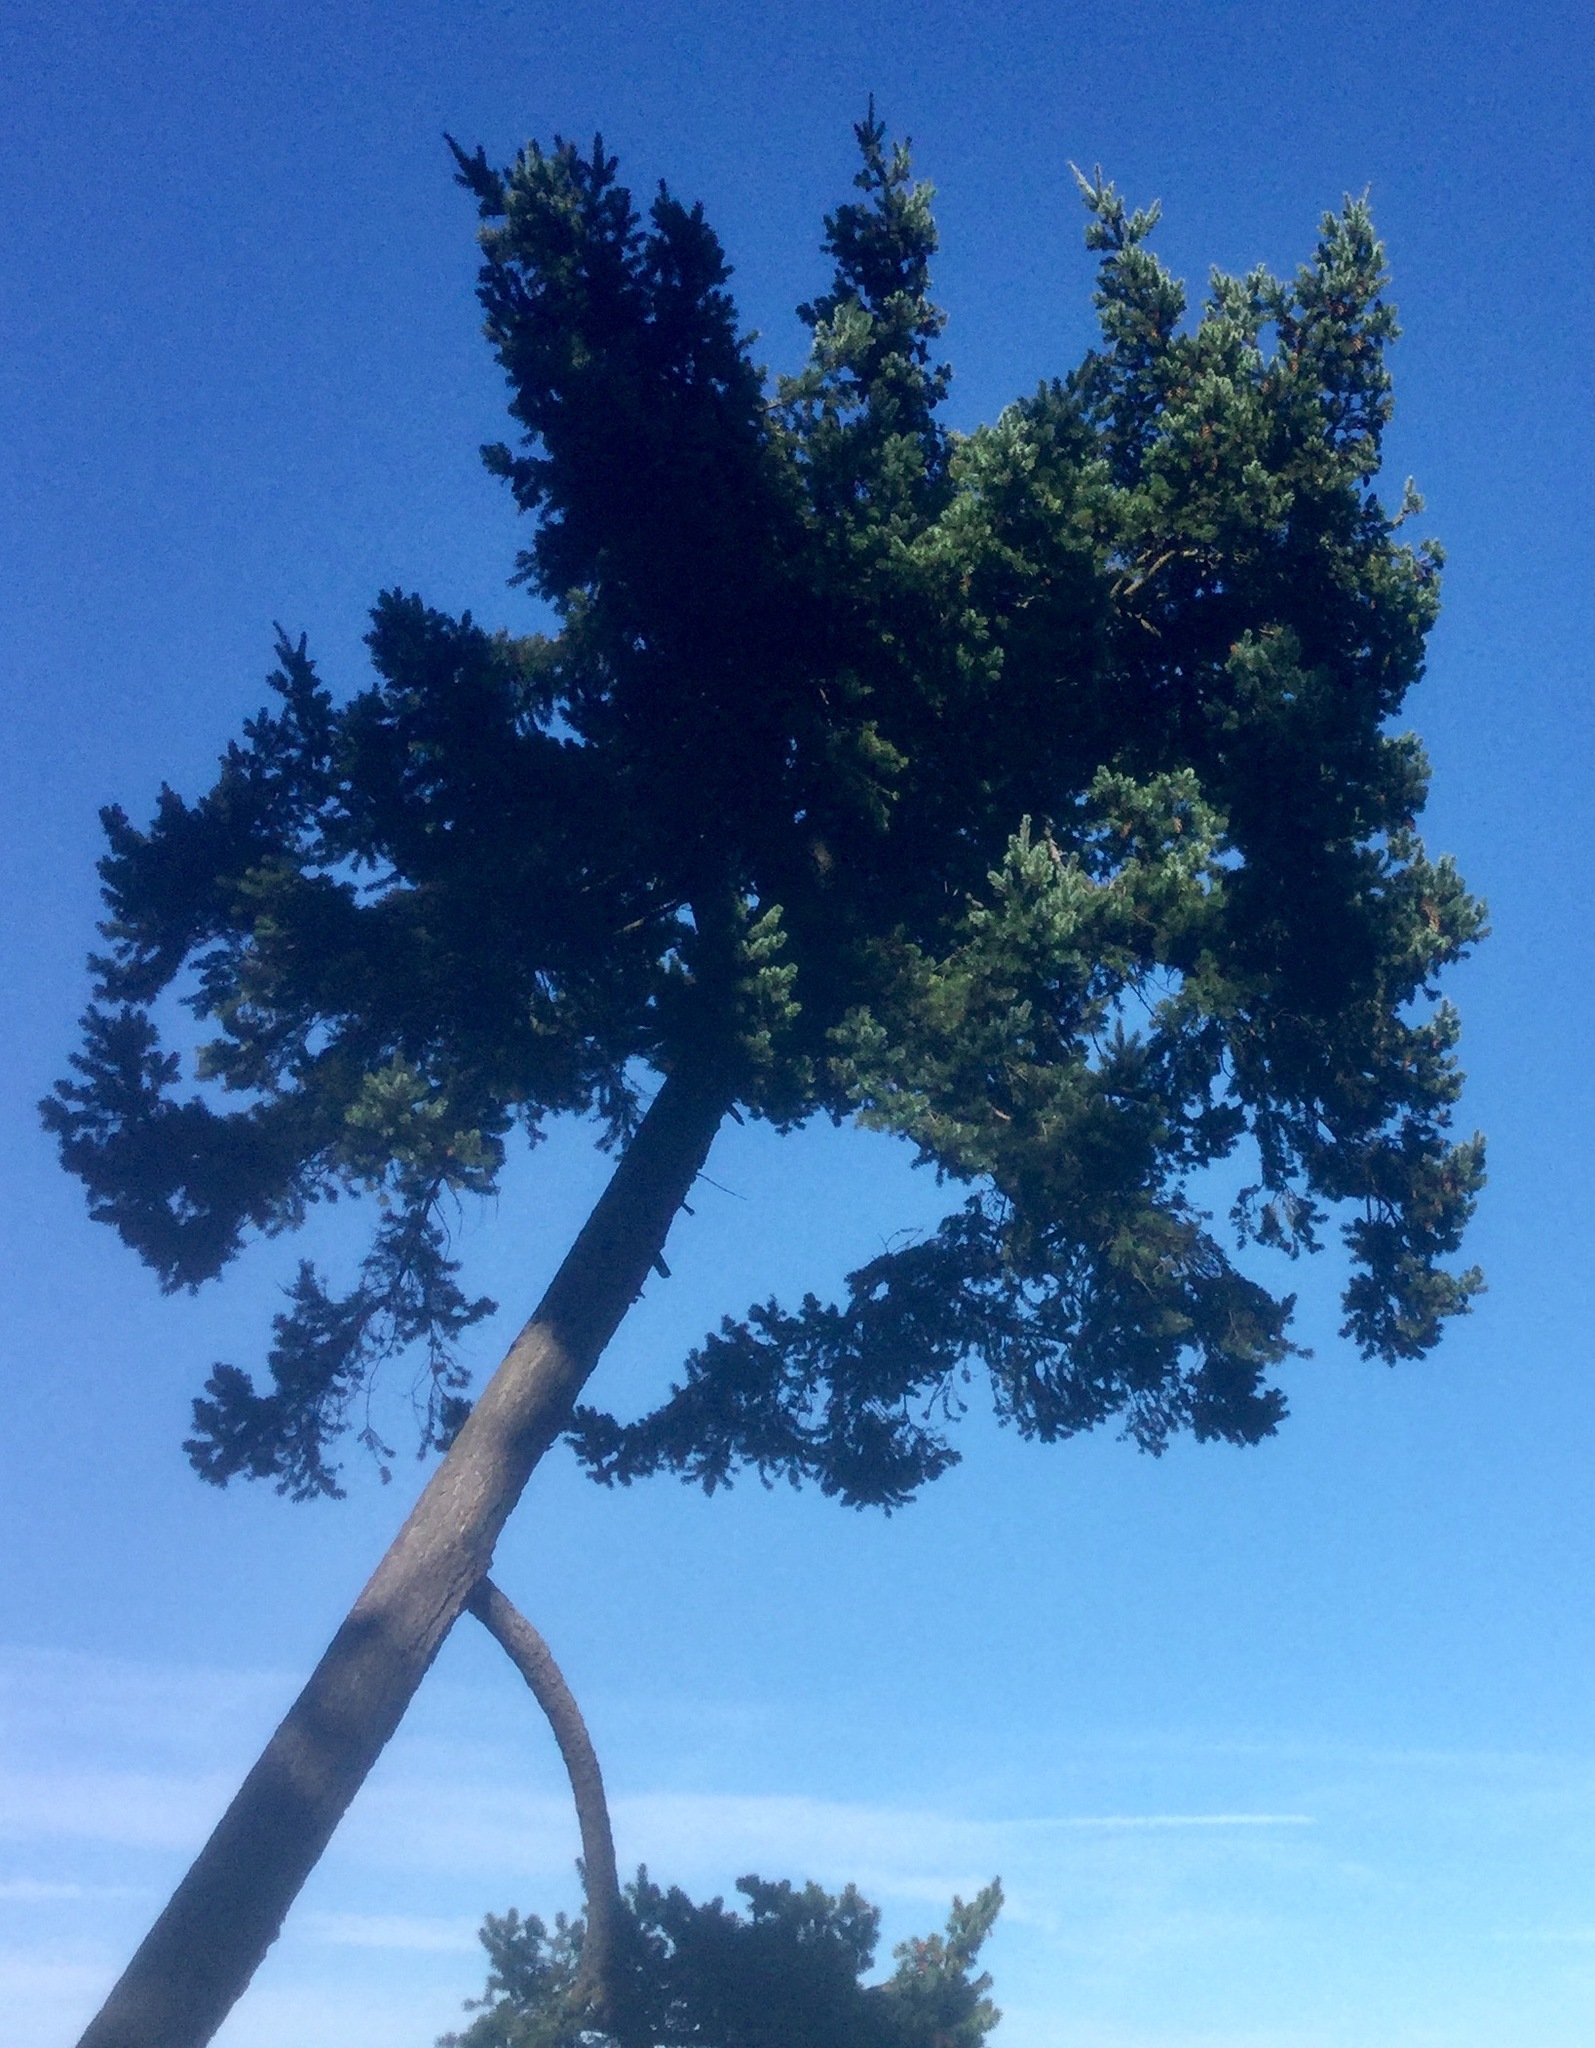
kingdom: Plantae
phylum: Tracheophyta
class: Pinopsida
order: Pinales
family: Pinaceae
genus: Pseudotsuga
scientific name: Pseudotsuga menziesii
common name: Douglas fir
